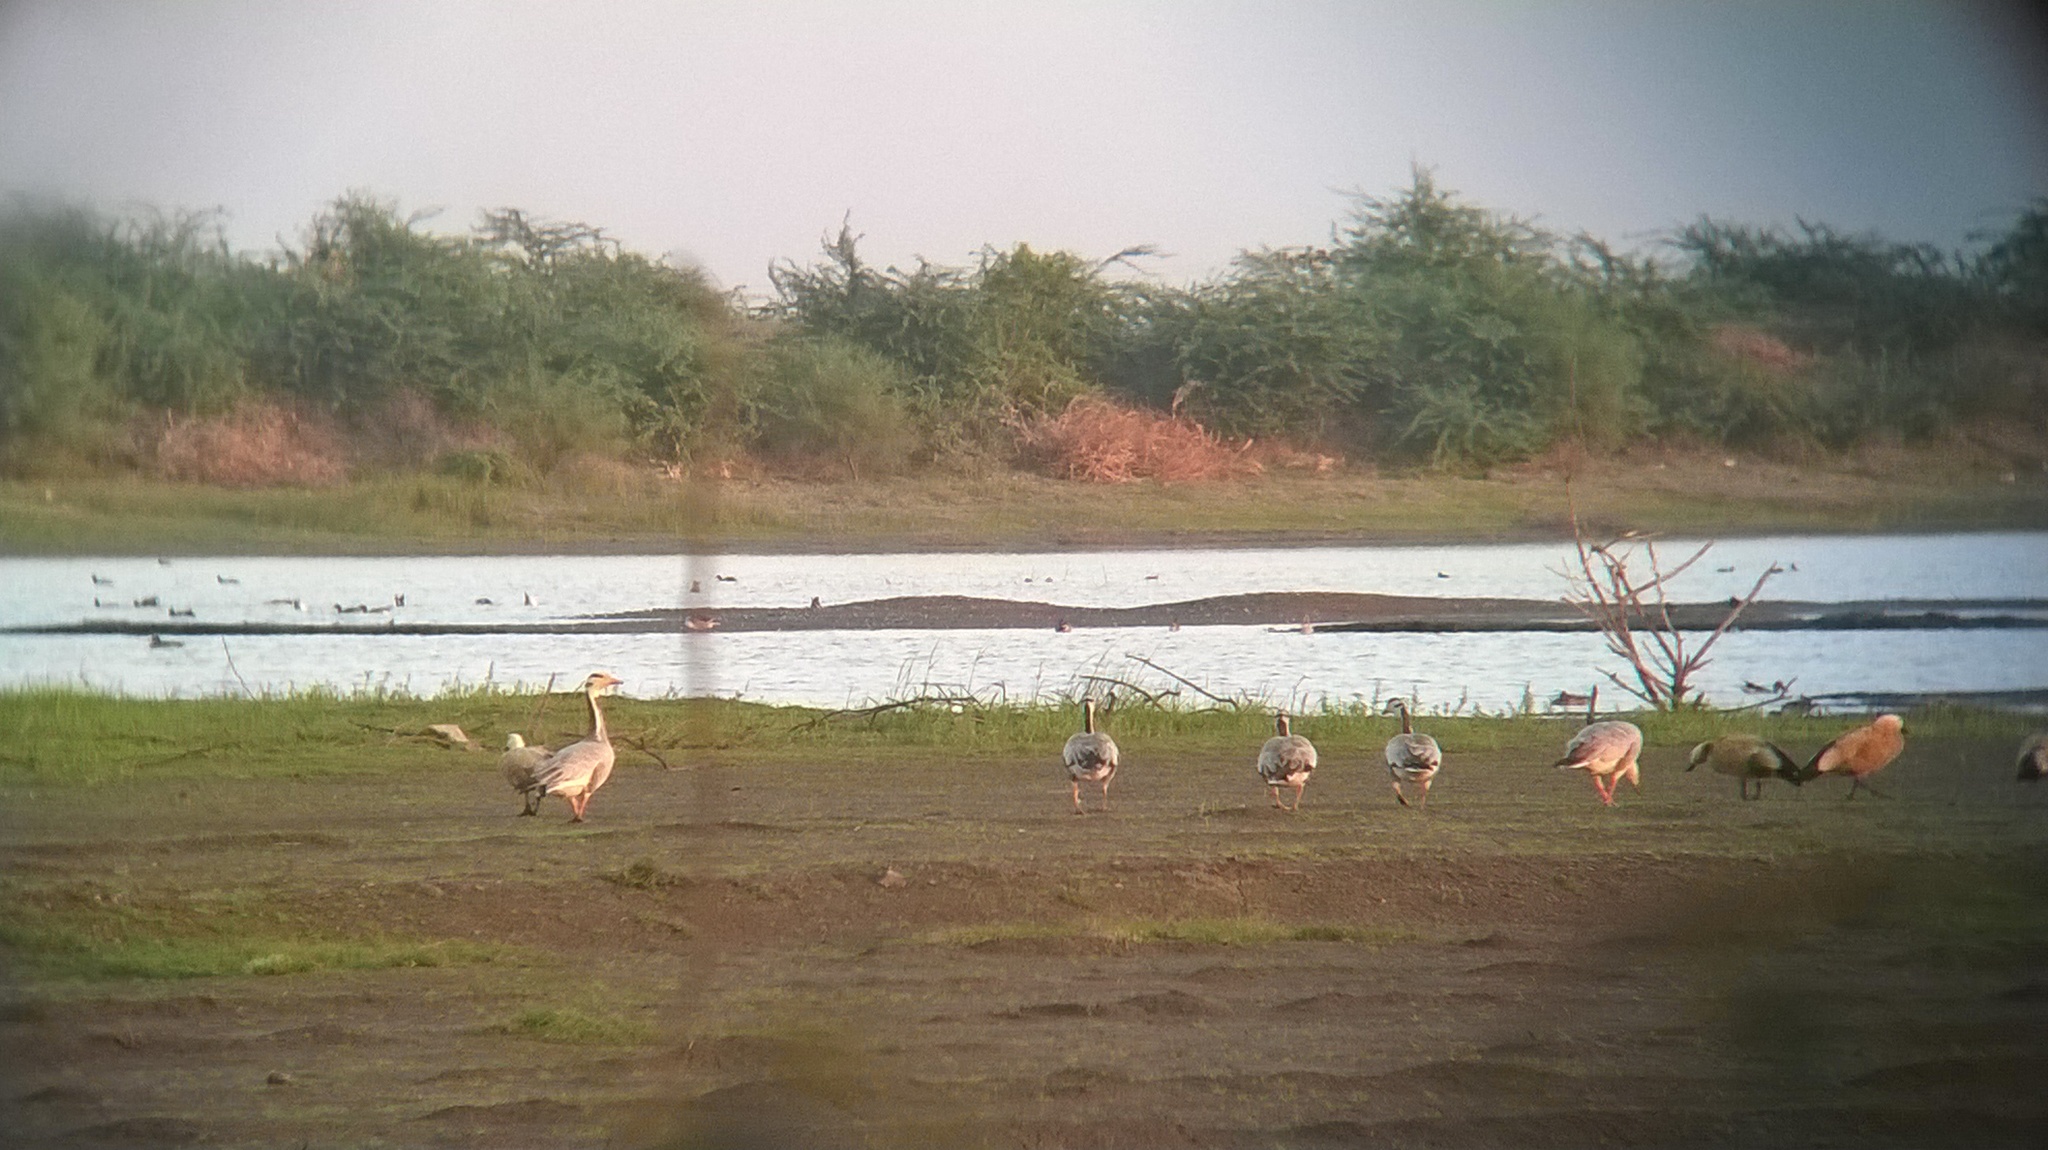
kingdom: Animalia
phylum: Chordata
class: Aves
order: Anseriformes
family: Anatidae
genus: Anser
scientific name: Anser indicus
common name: Bar-headed goose
